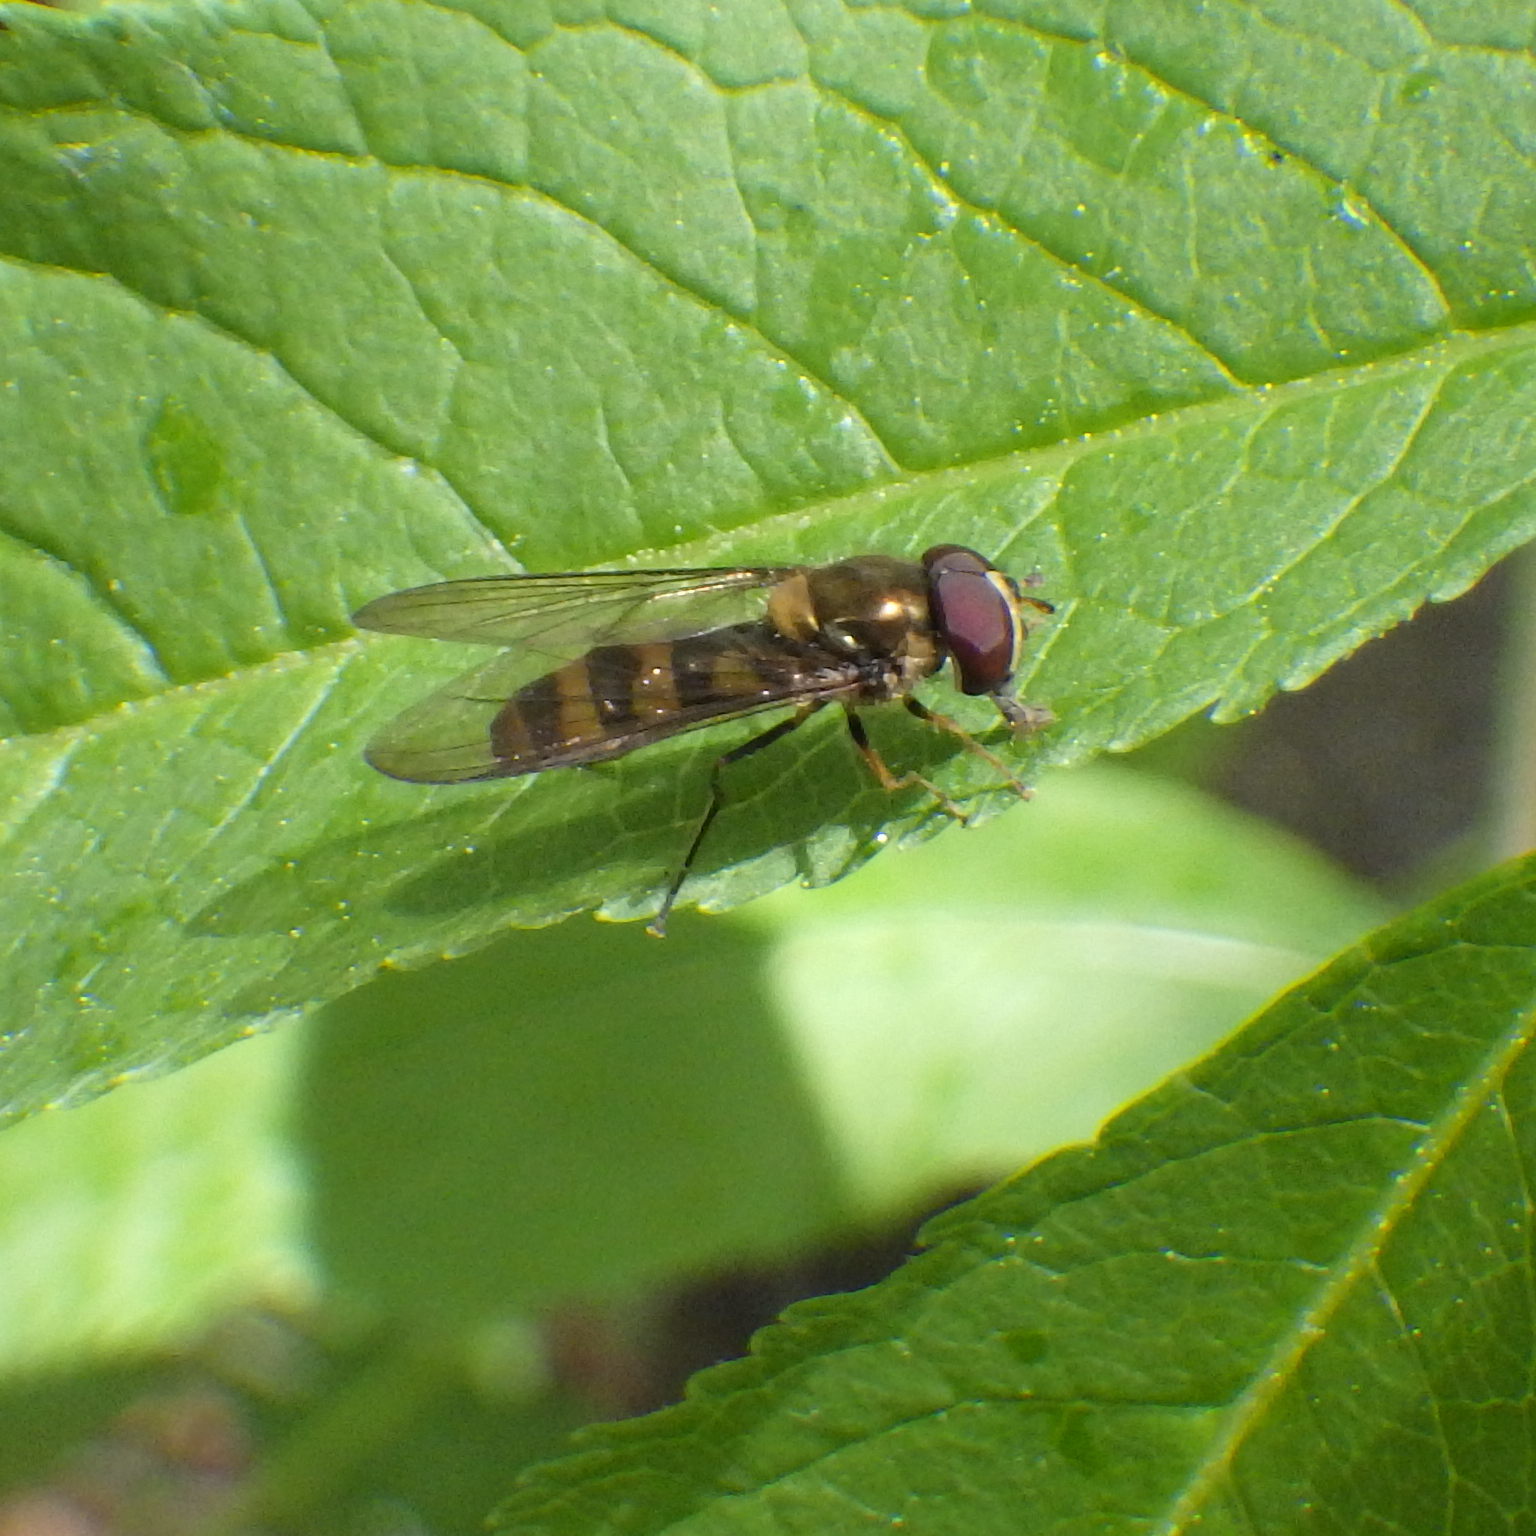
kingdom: Animalia
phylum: Arthropoda
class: Insecta
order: Diptera
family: Syrphidae
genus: Meliscaeva
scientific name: Meliscaeva cinctella
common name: American thintail fly
